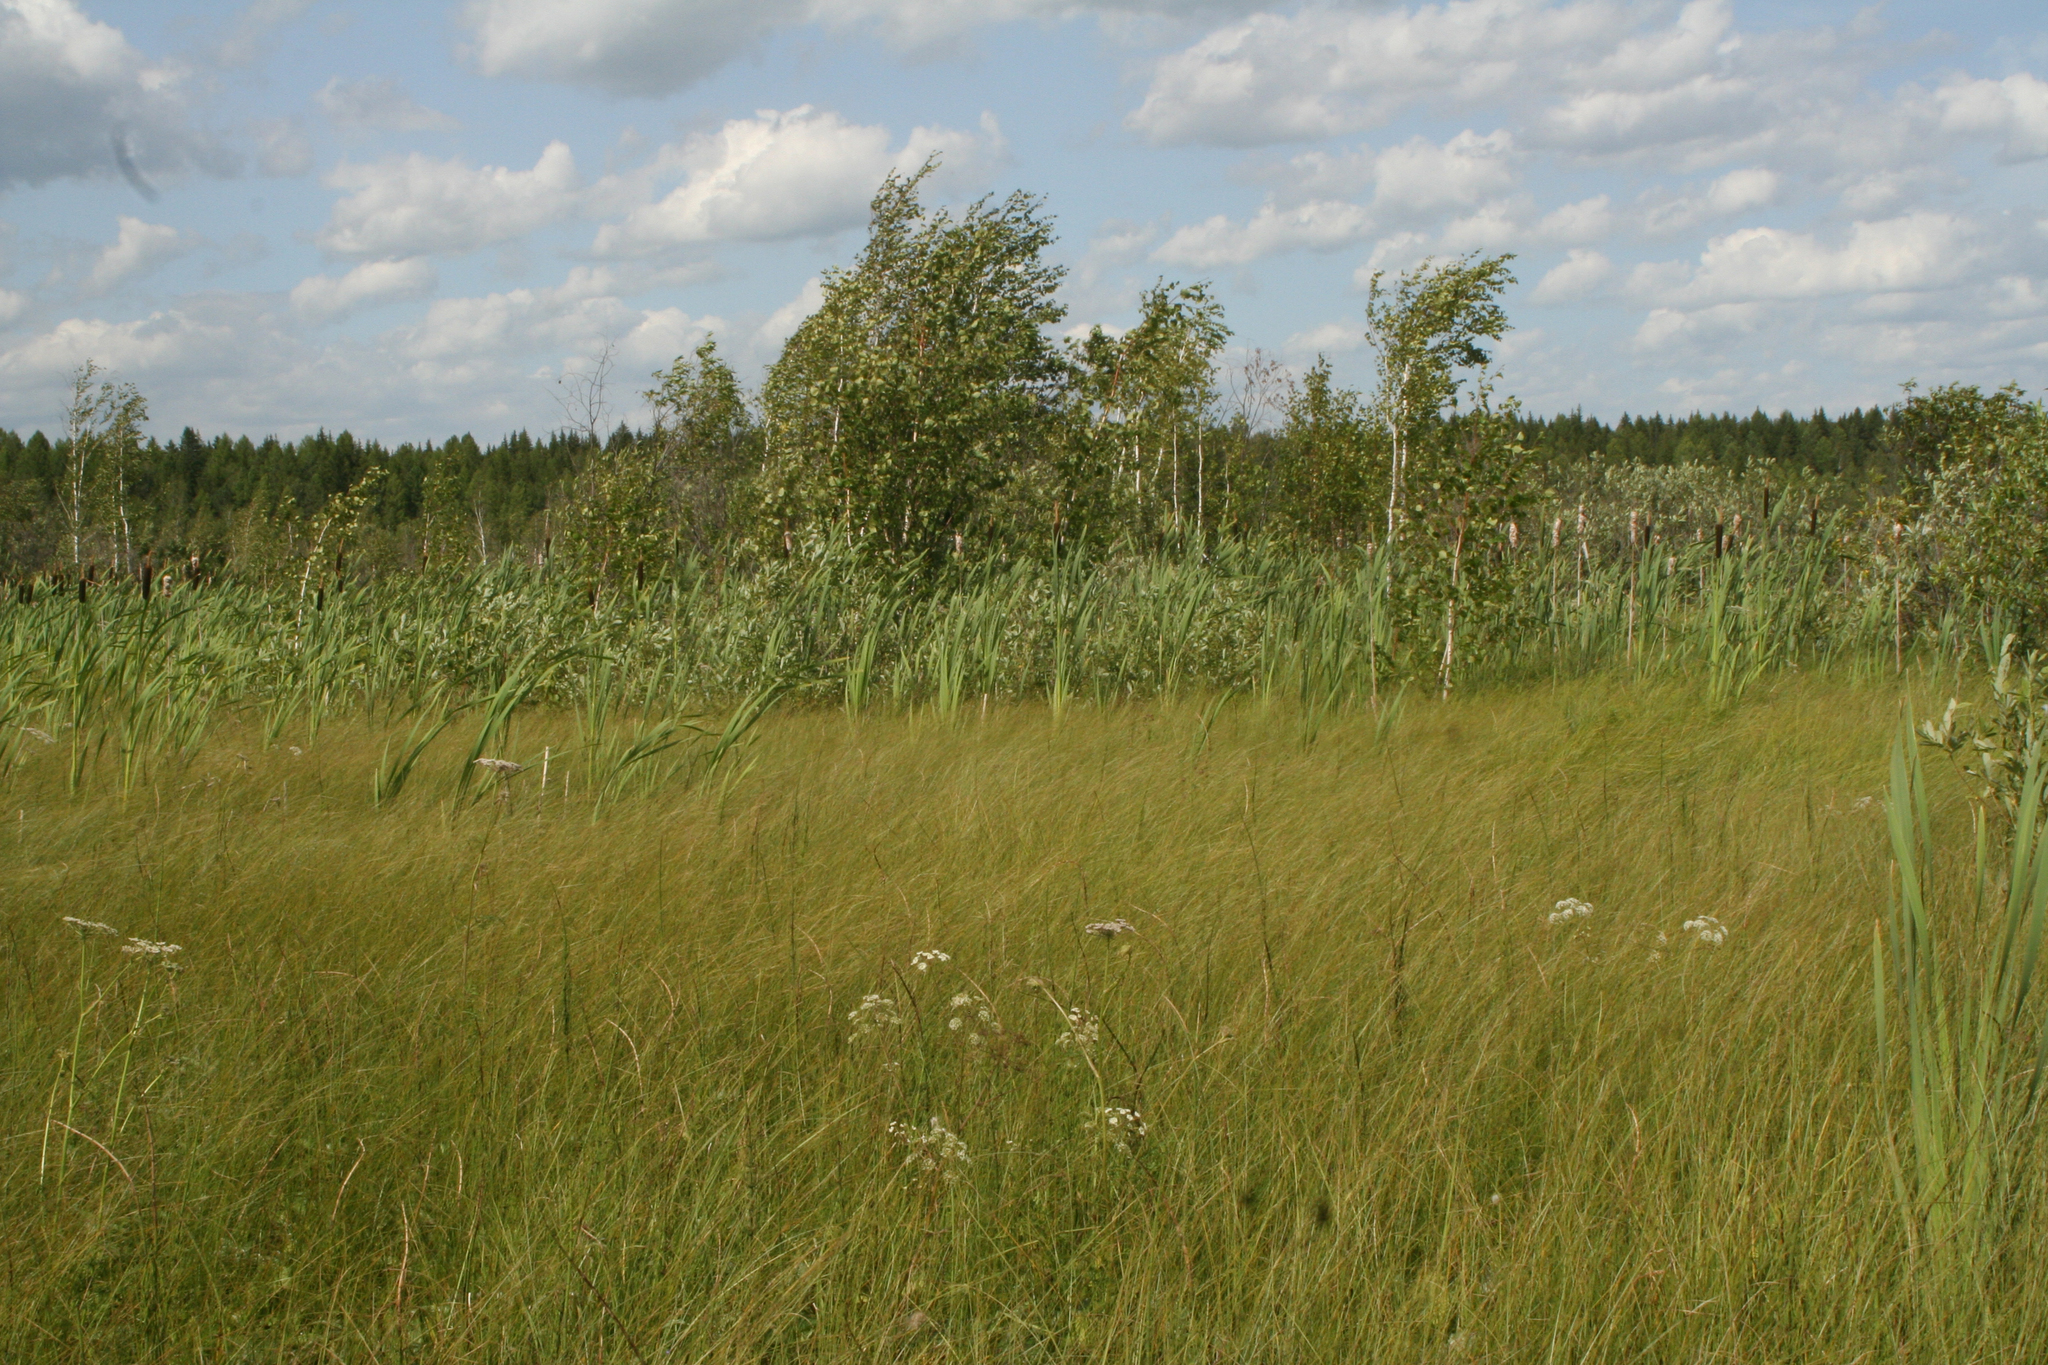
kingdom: Plantae
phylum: Tracheophyta
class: Magnoliopsida
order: Fagales
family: Betulaceae
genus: Betula
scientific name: Betula pubescens
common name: Downy birch
